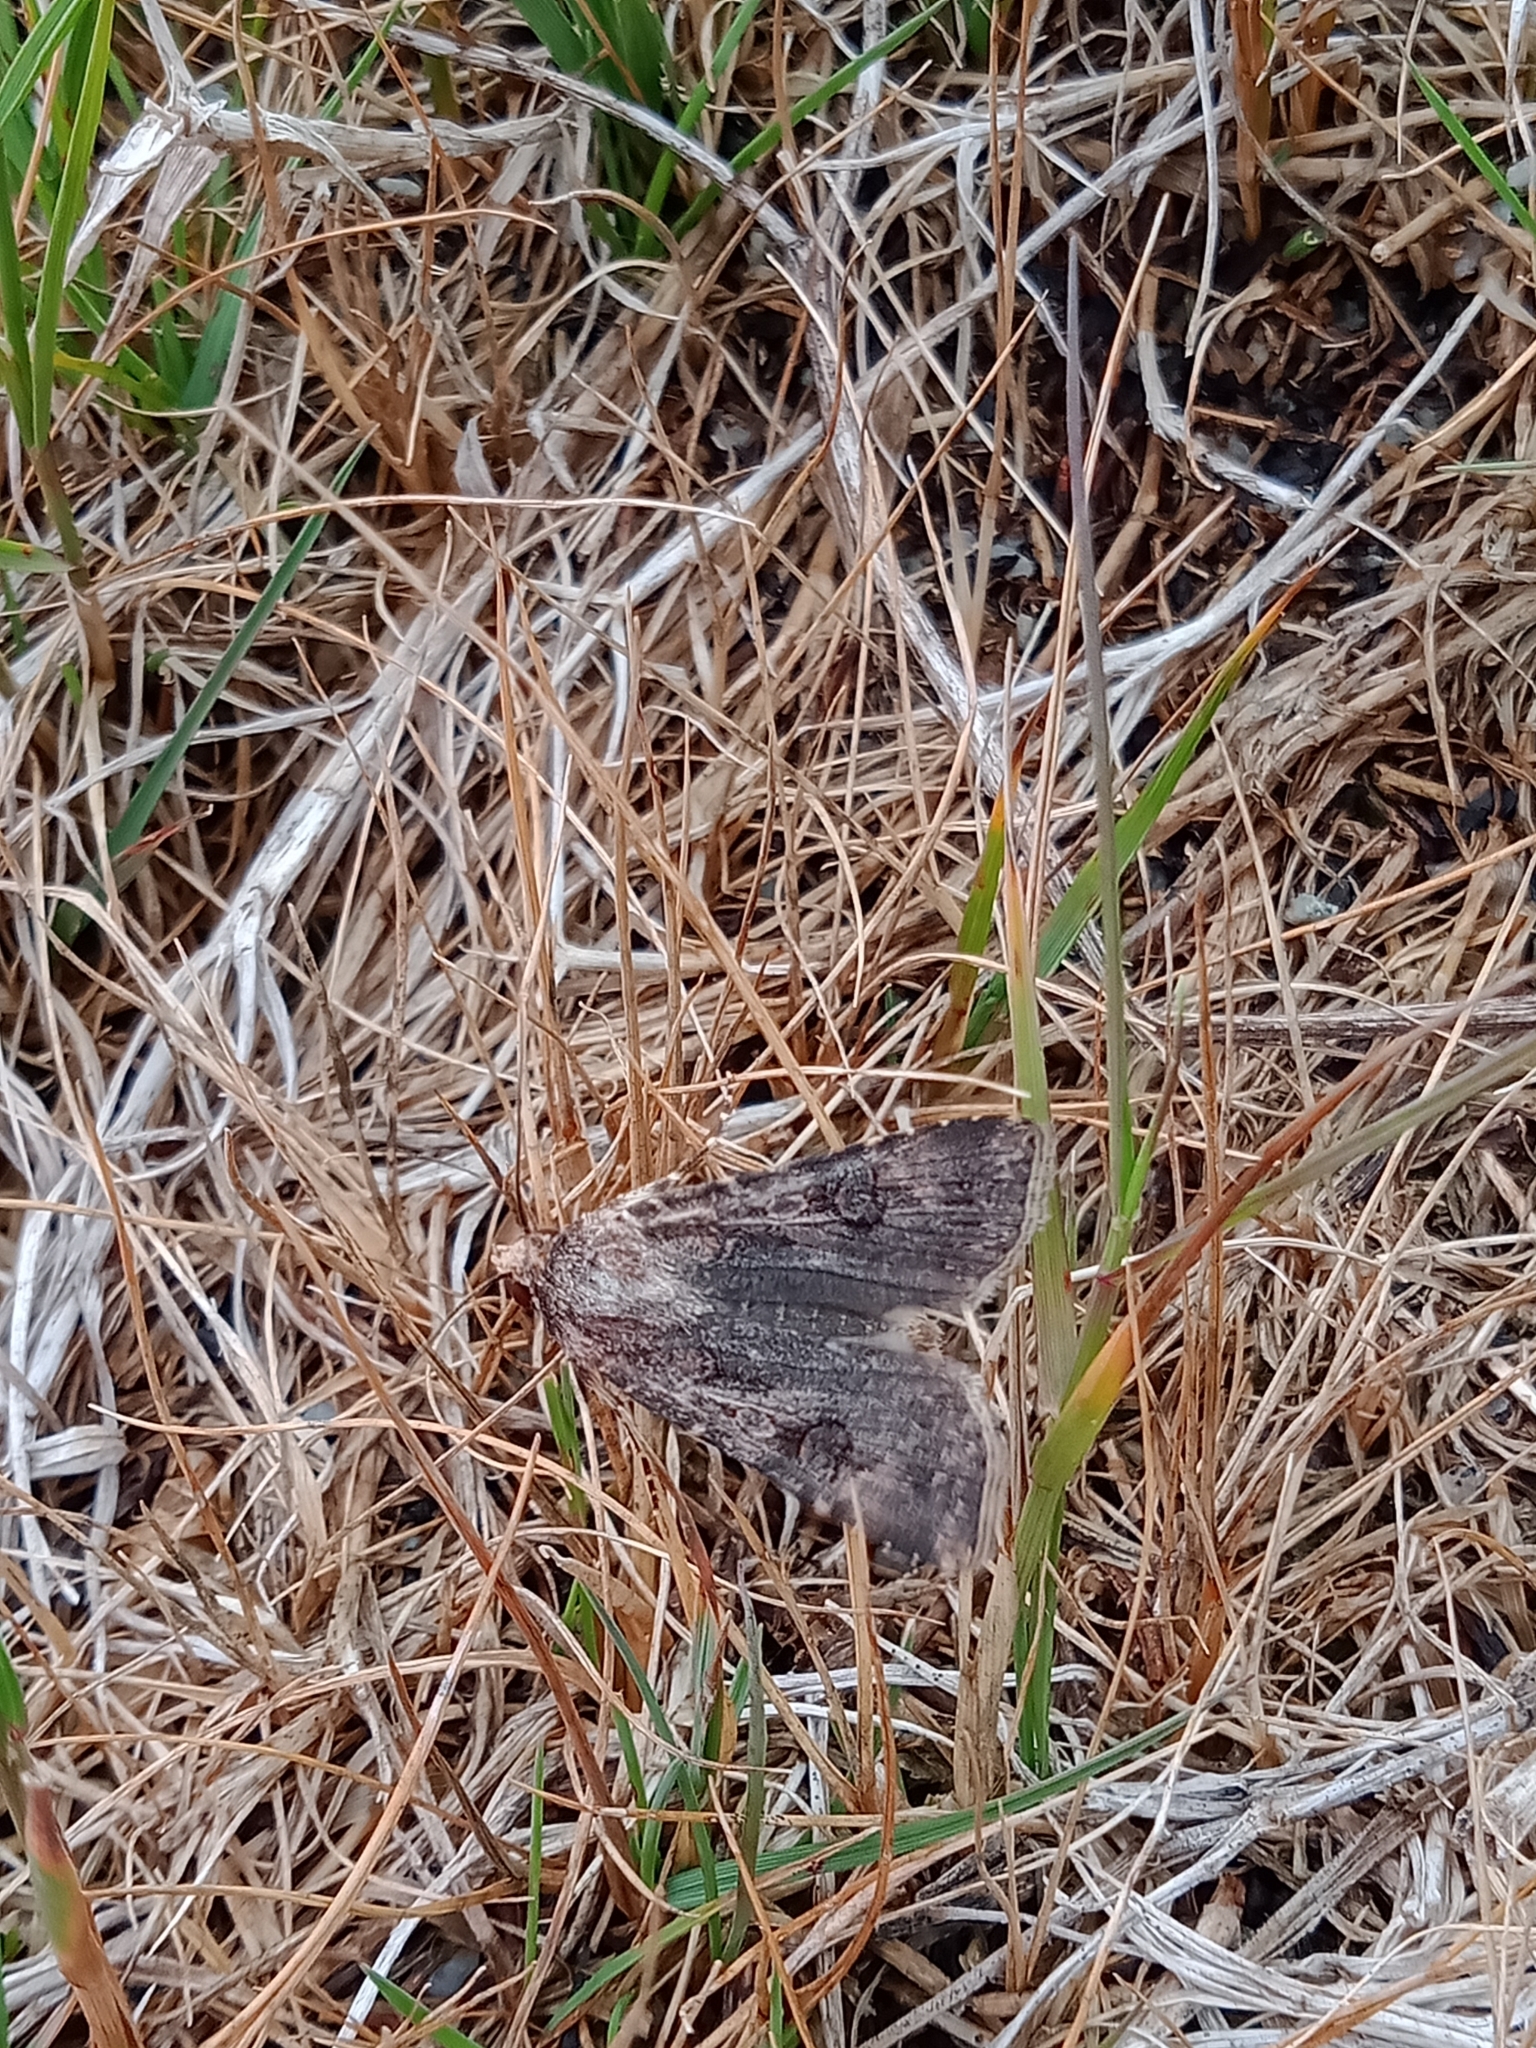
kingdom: Animalia
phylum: Arthropoda
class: Insecta
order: Lepidoptera
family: Noctuidae
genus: Agrotis
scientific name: Agrotis infusa
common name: Bogong moth
